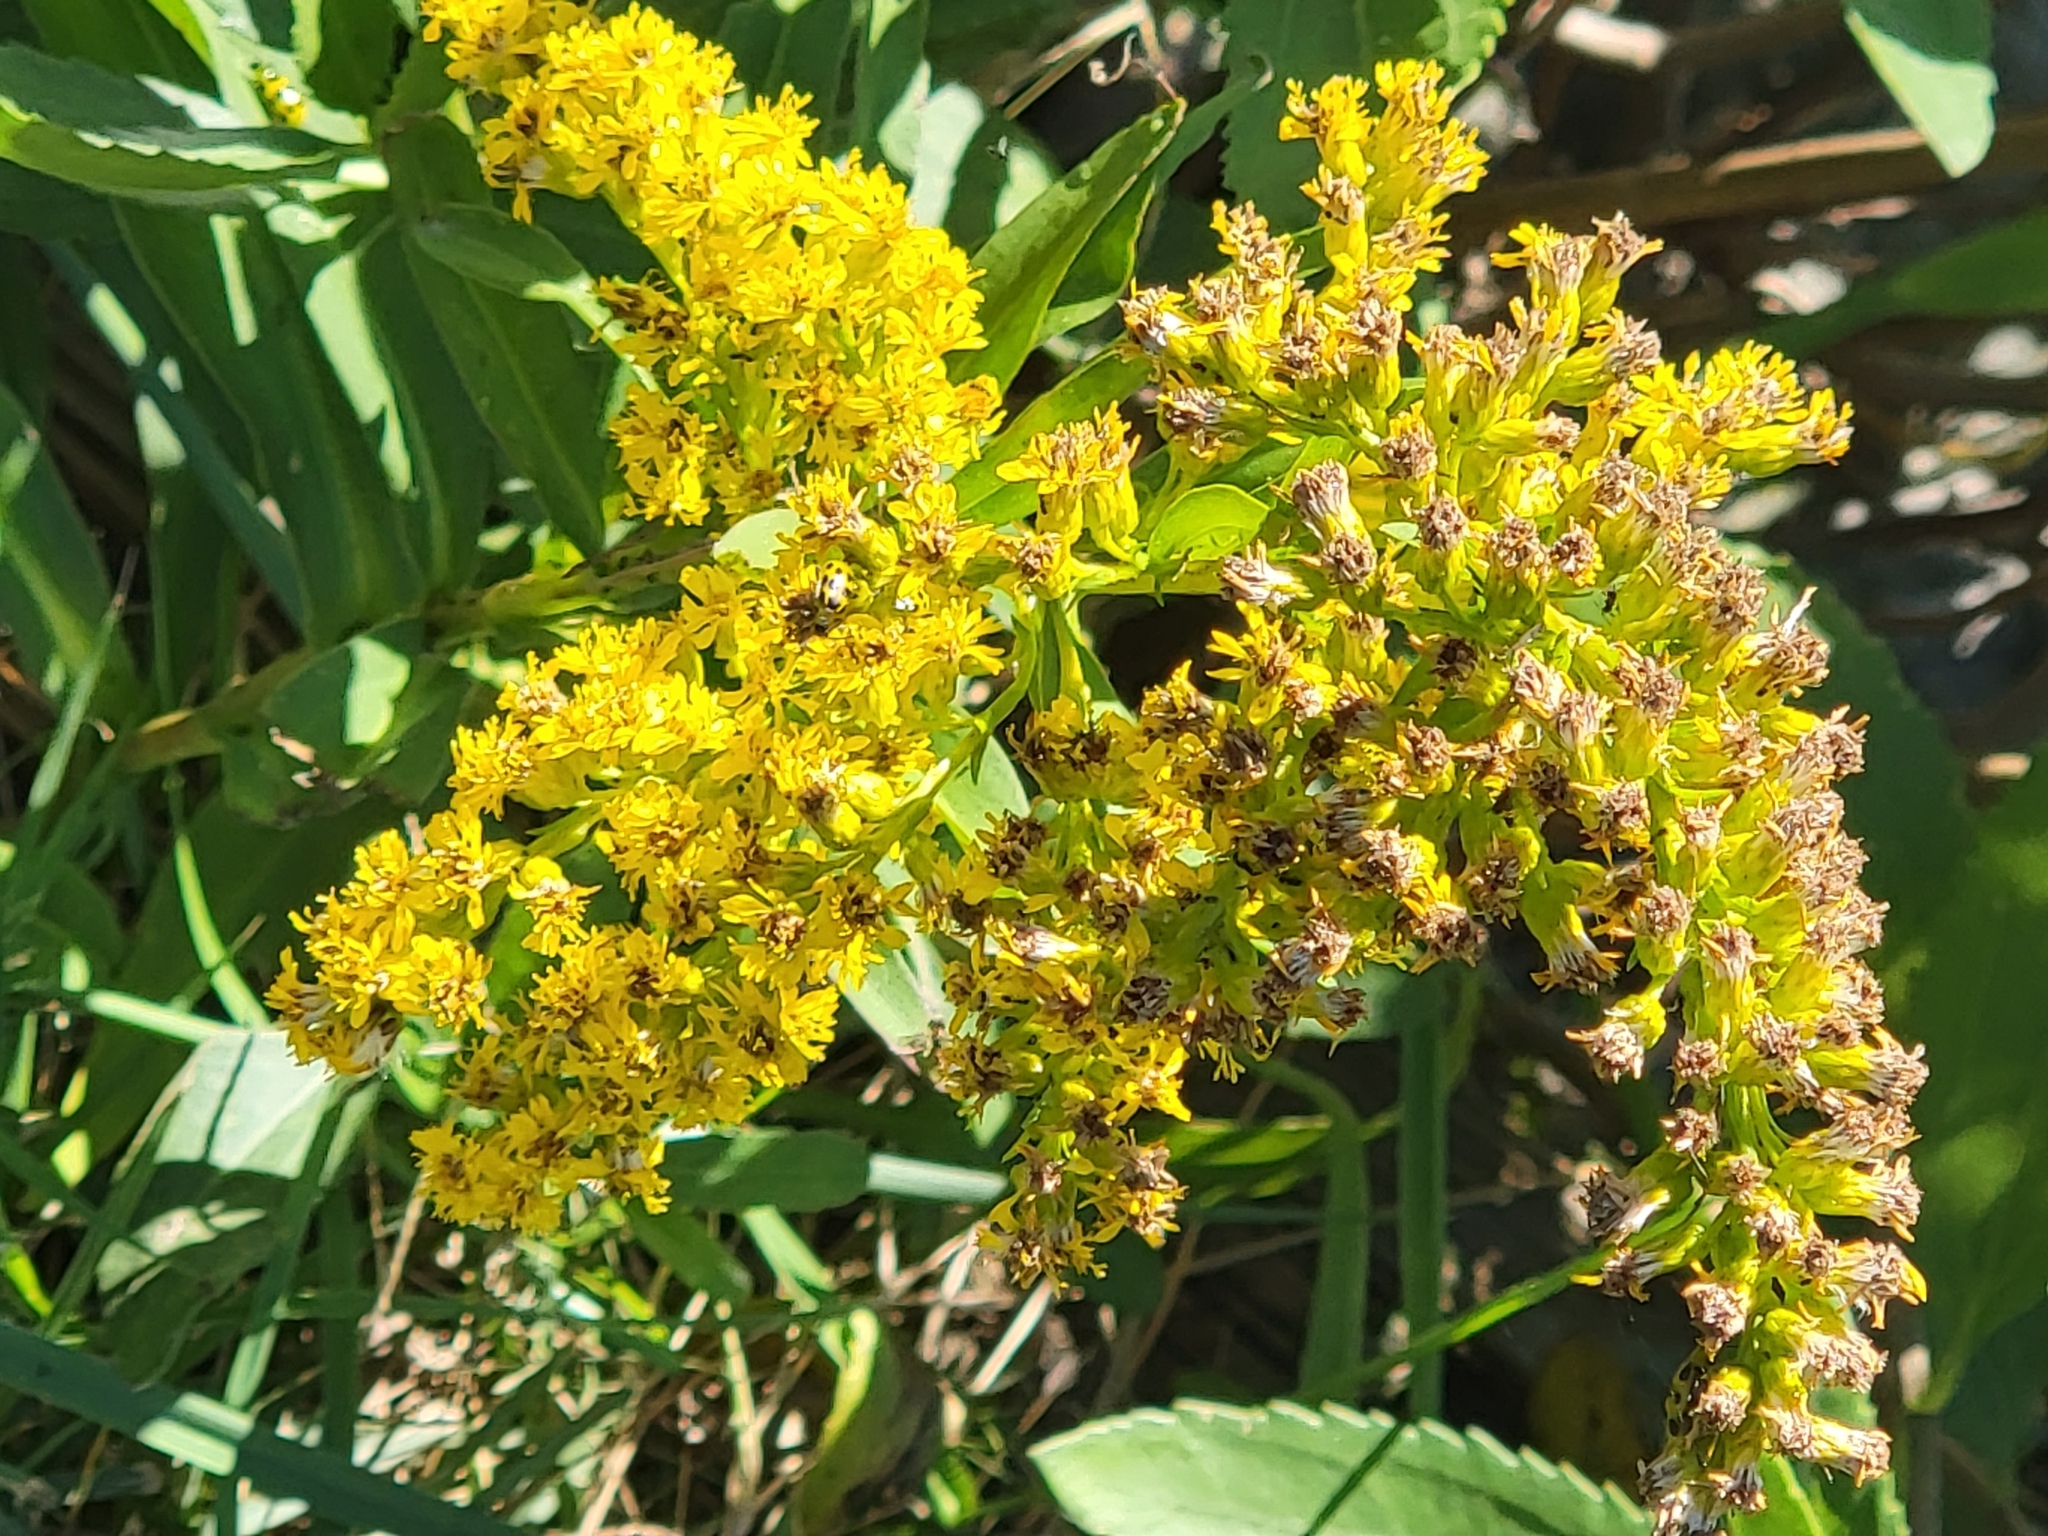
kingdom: Plantae
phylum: Tracheophyta
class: Magnoliopsida
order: Asterales
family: Asteraceae
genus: Solidago
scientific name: Solidago sempervirens
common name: Salt-marsh goldenrod
